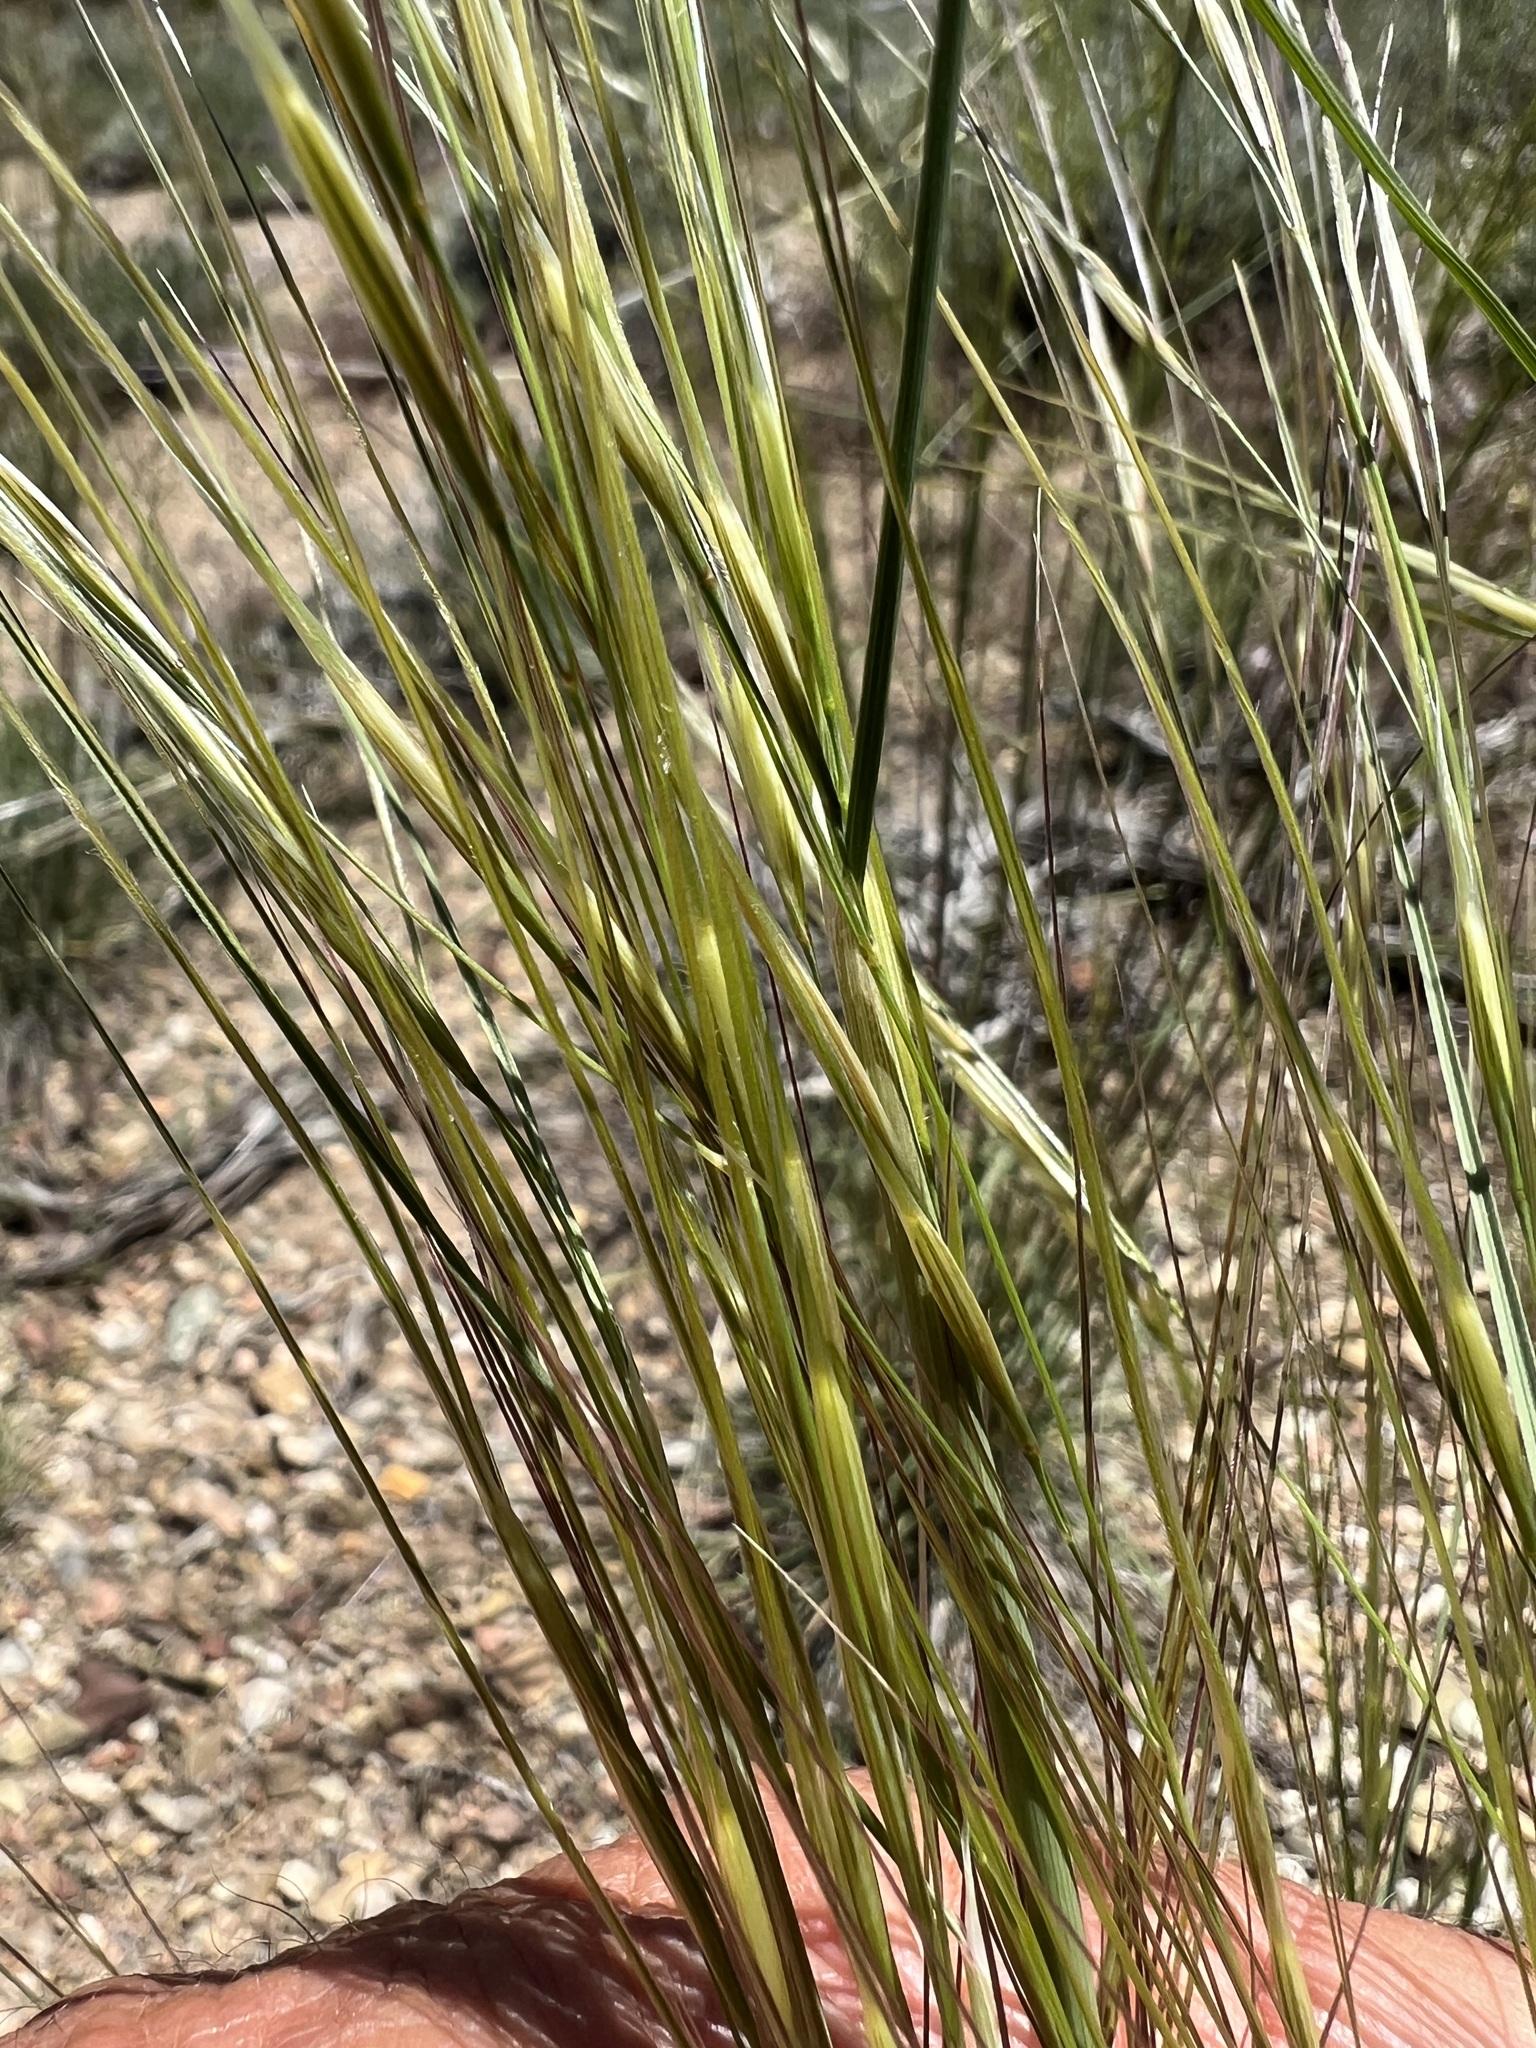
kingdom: Plantae
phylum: Tracheophyta
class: Liliopsida
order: Poales
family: Poaceae
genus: Hesperostipa
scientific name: Hesperostipa comata
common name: Needle-and-thread grass
